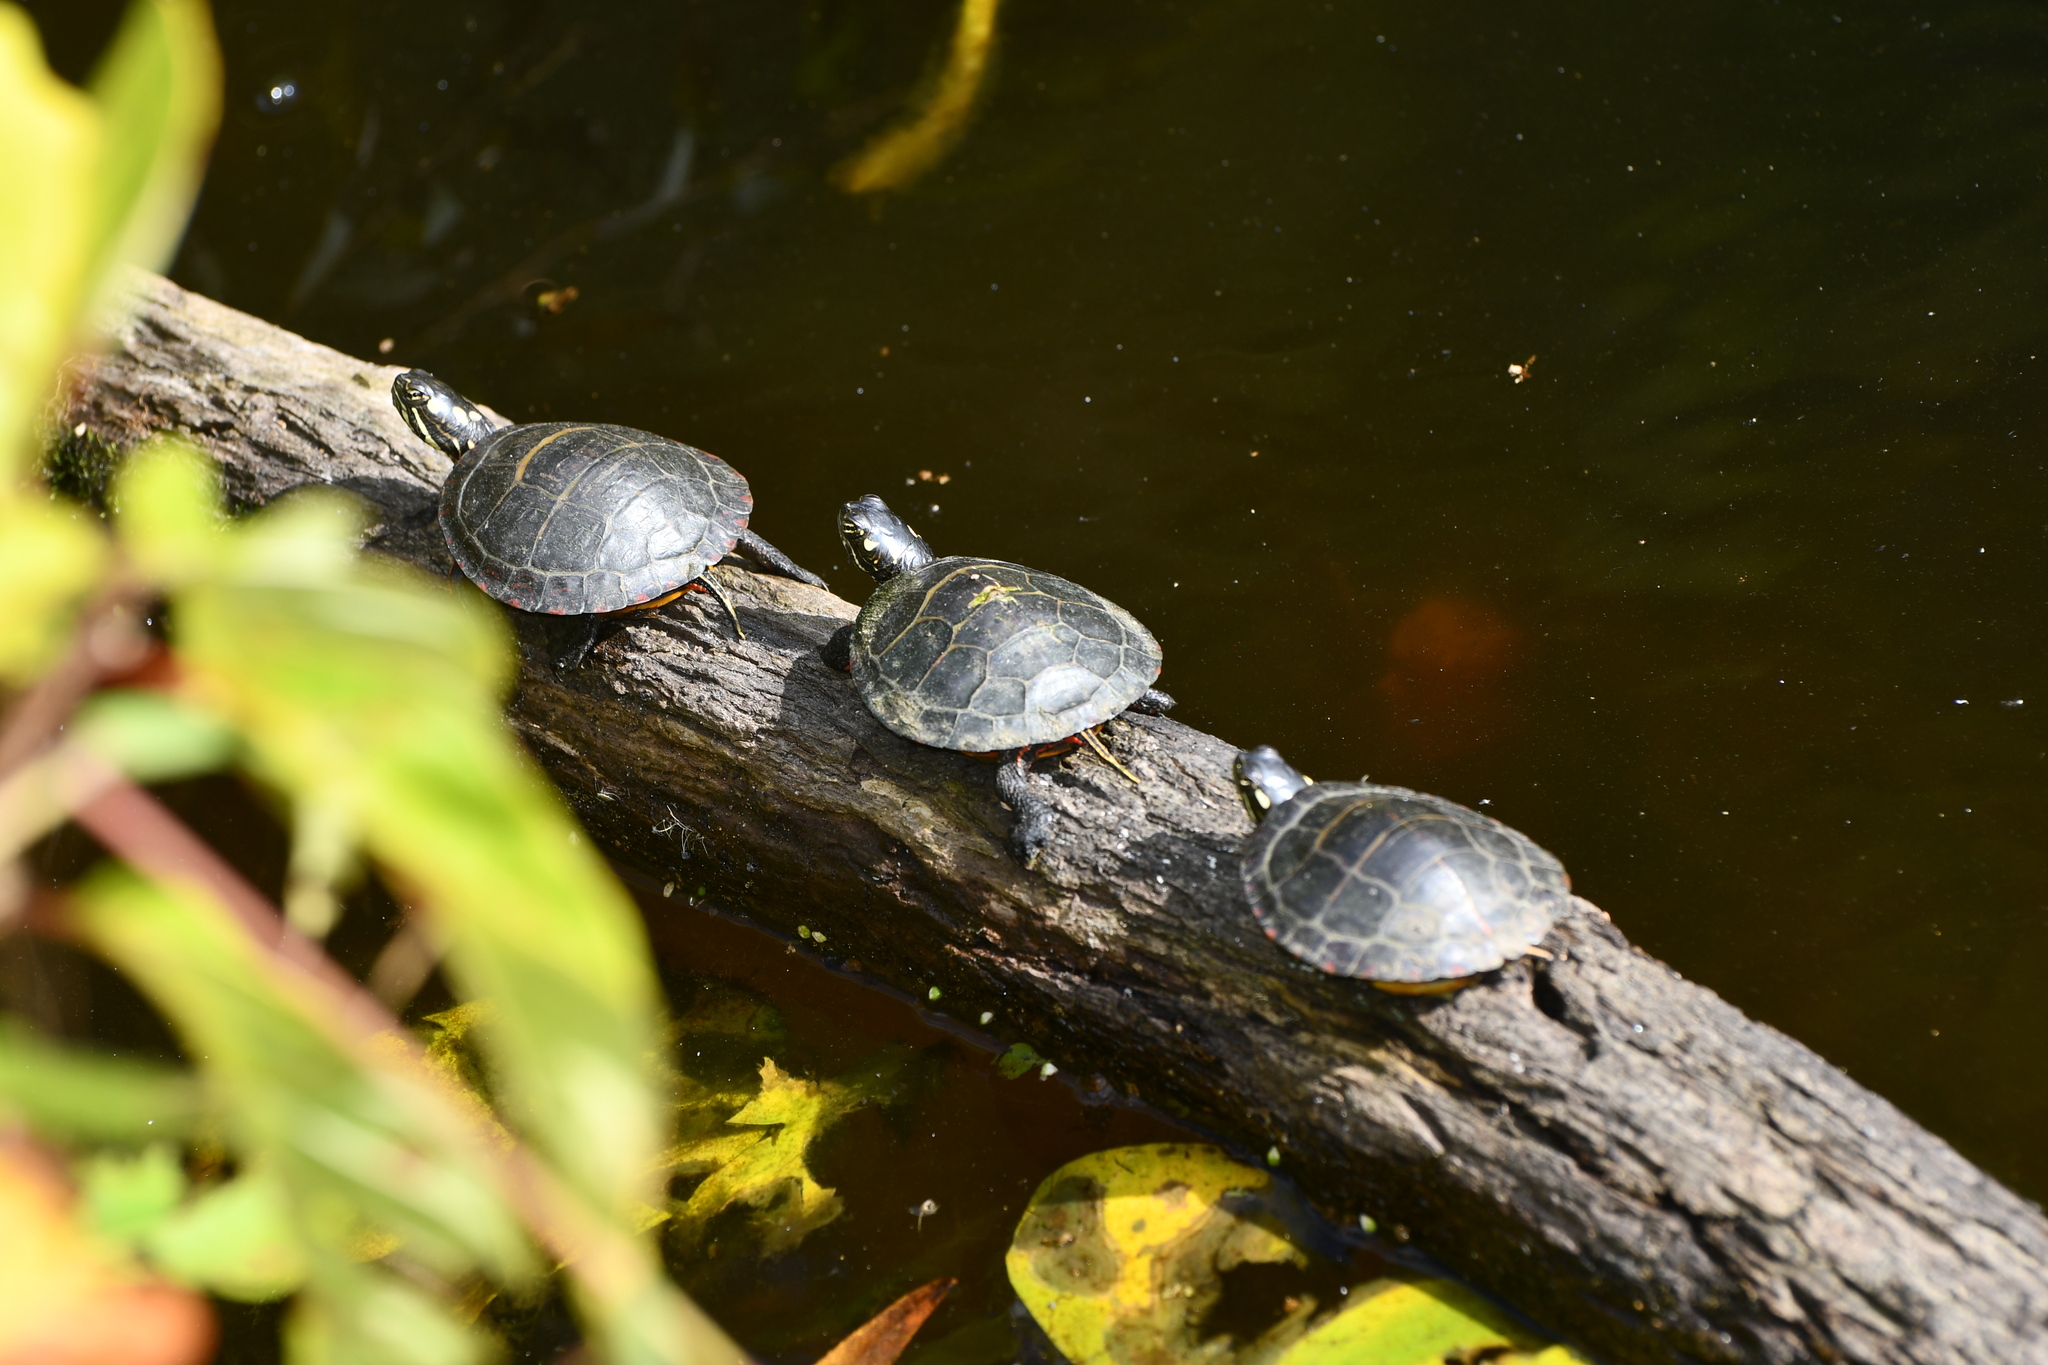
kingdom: Animalia
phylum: Chordata
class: Testudines
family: Emydidae
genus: Chrysemys
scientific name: Chrysemys picta
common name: Painted turtle
